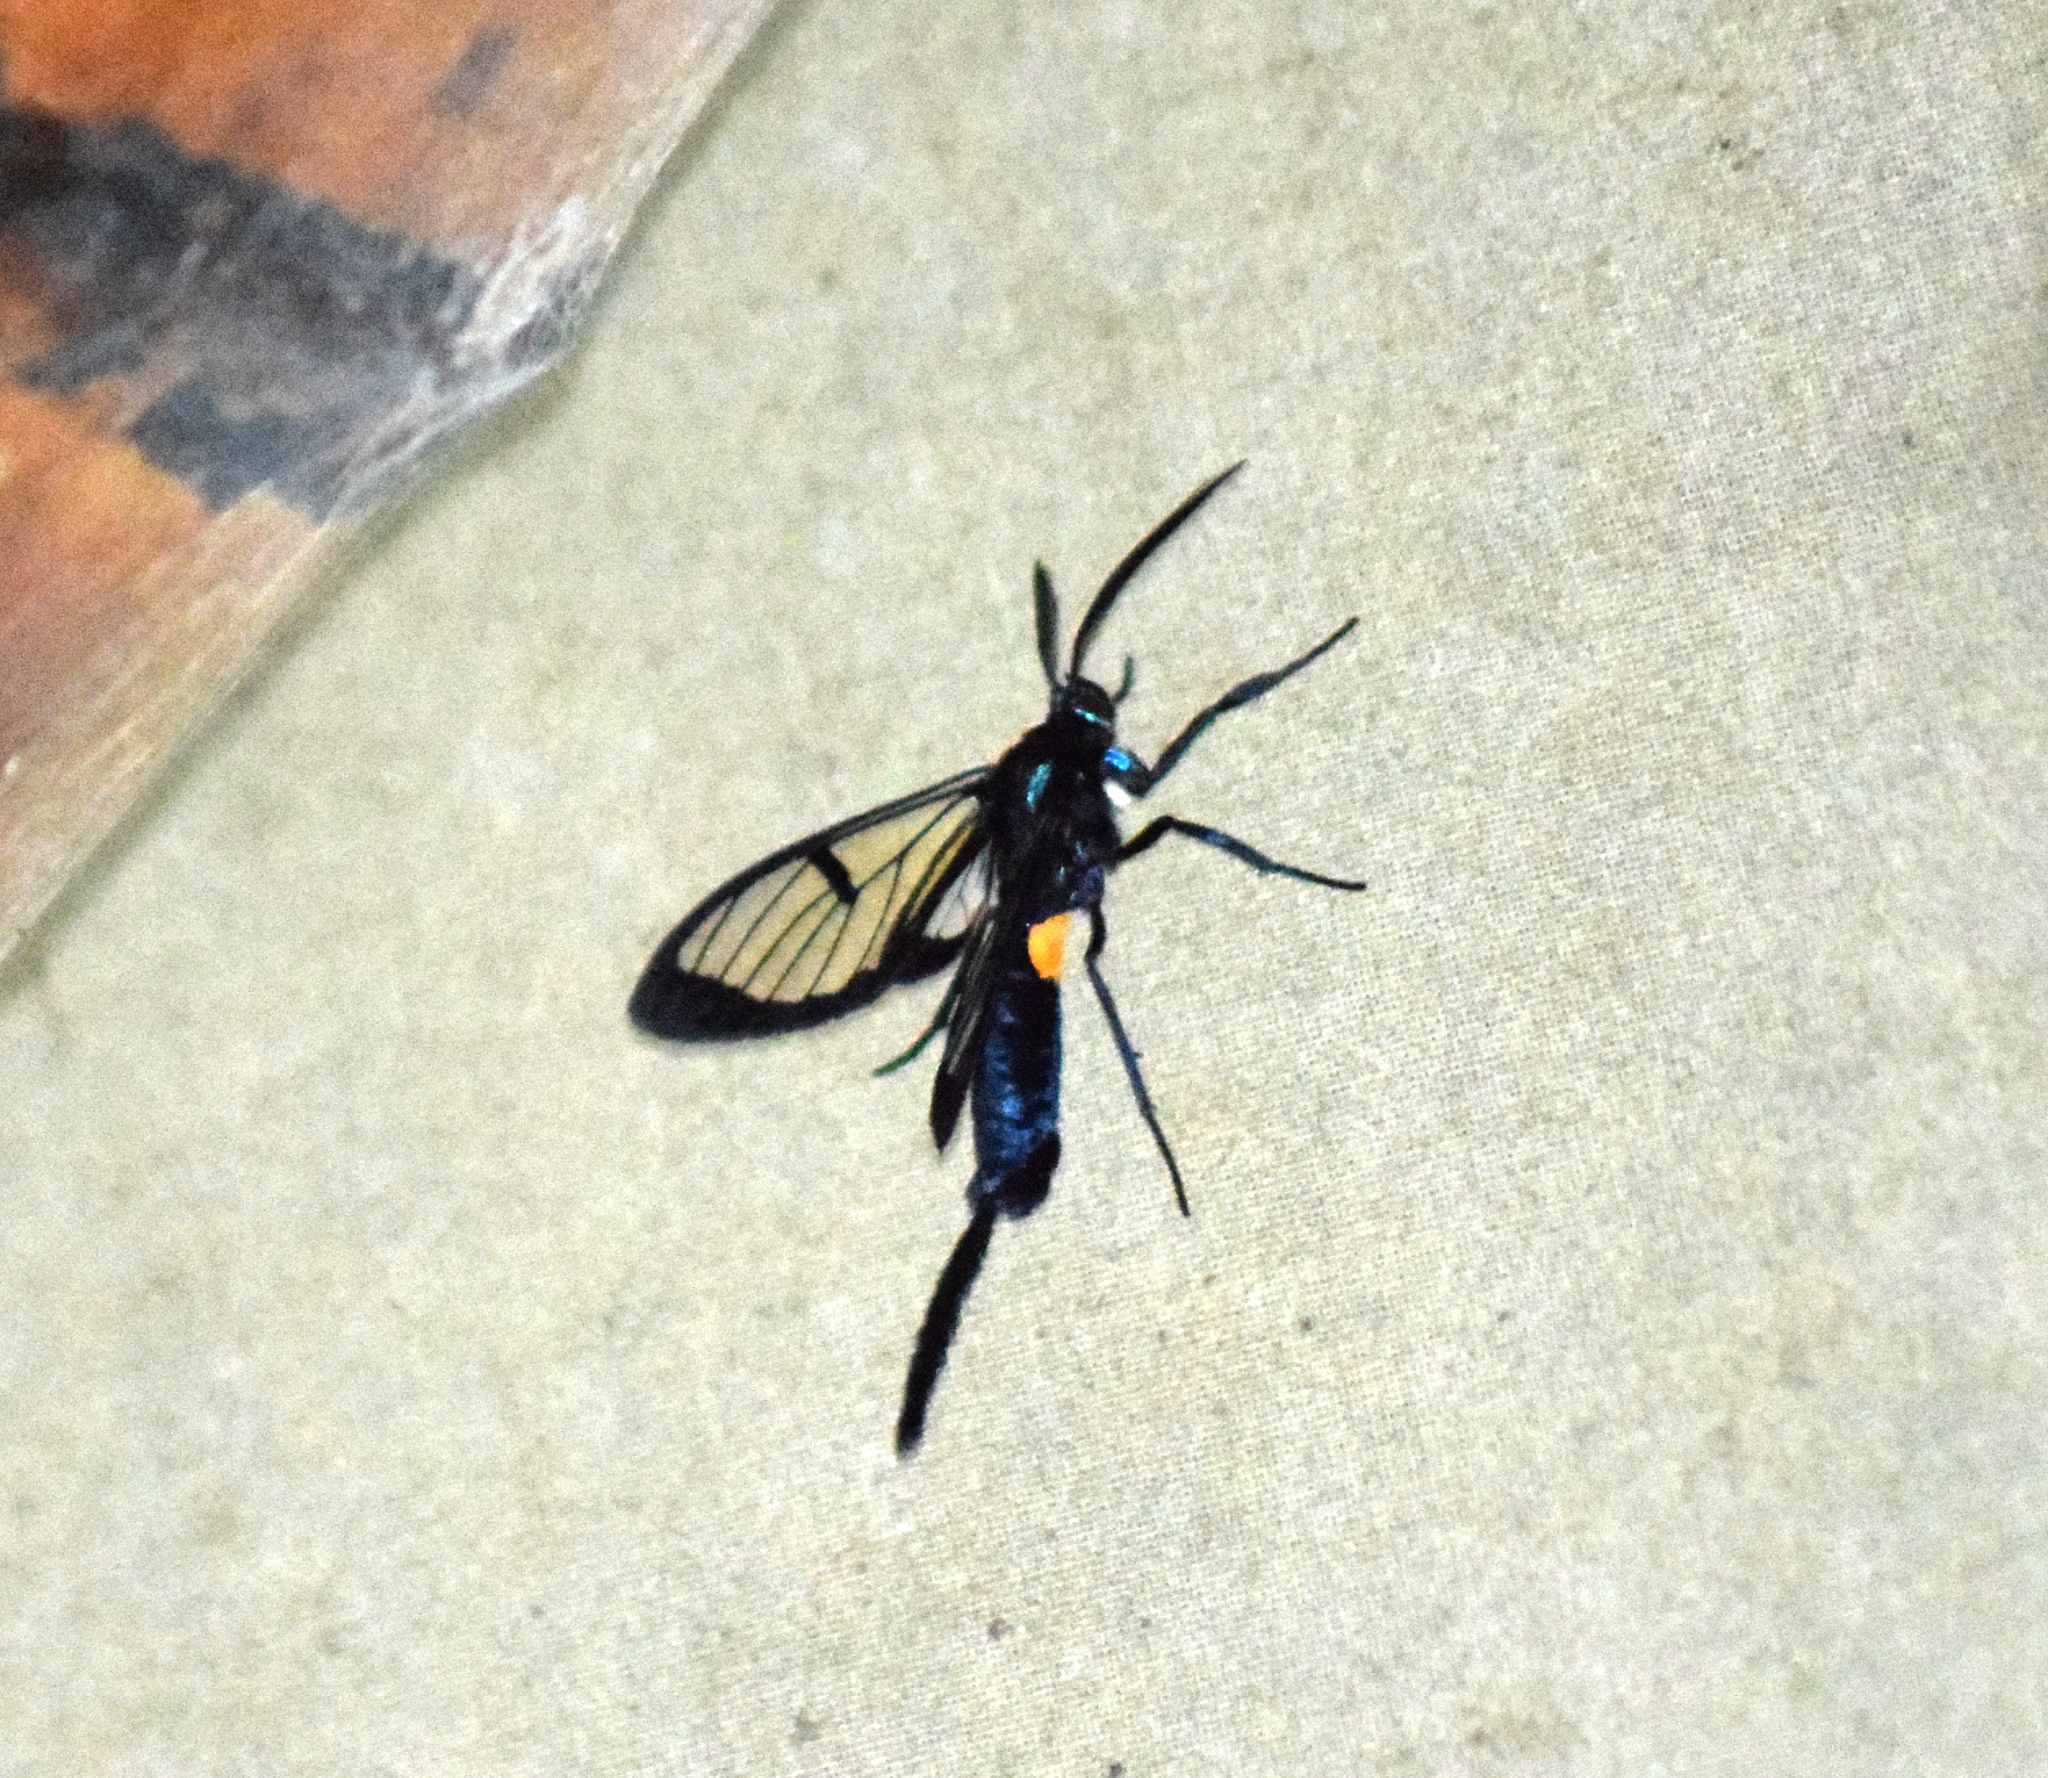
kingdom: Animalia
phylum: Arthropoda
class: Insecta
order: Lepidoptera
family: Erebidae
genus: Trichura
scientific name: Trichura dixanthia
